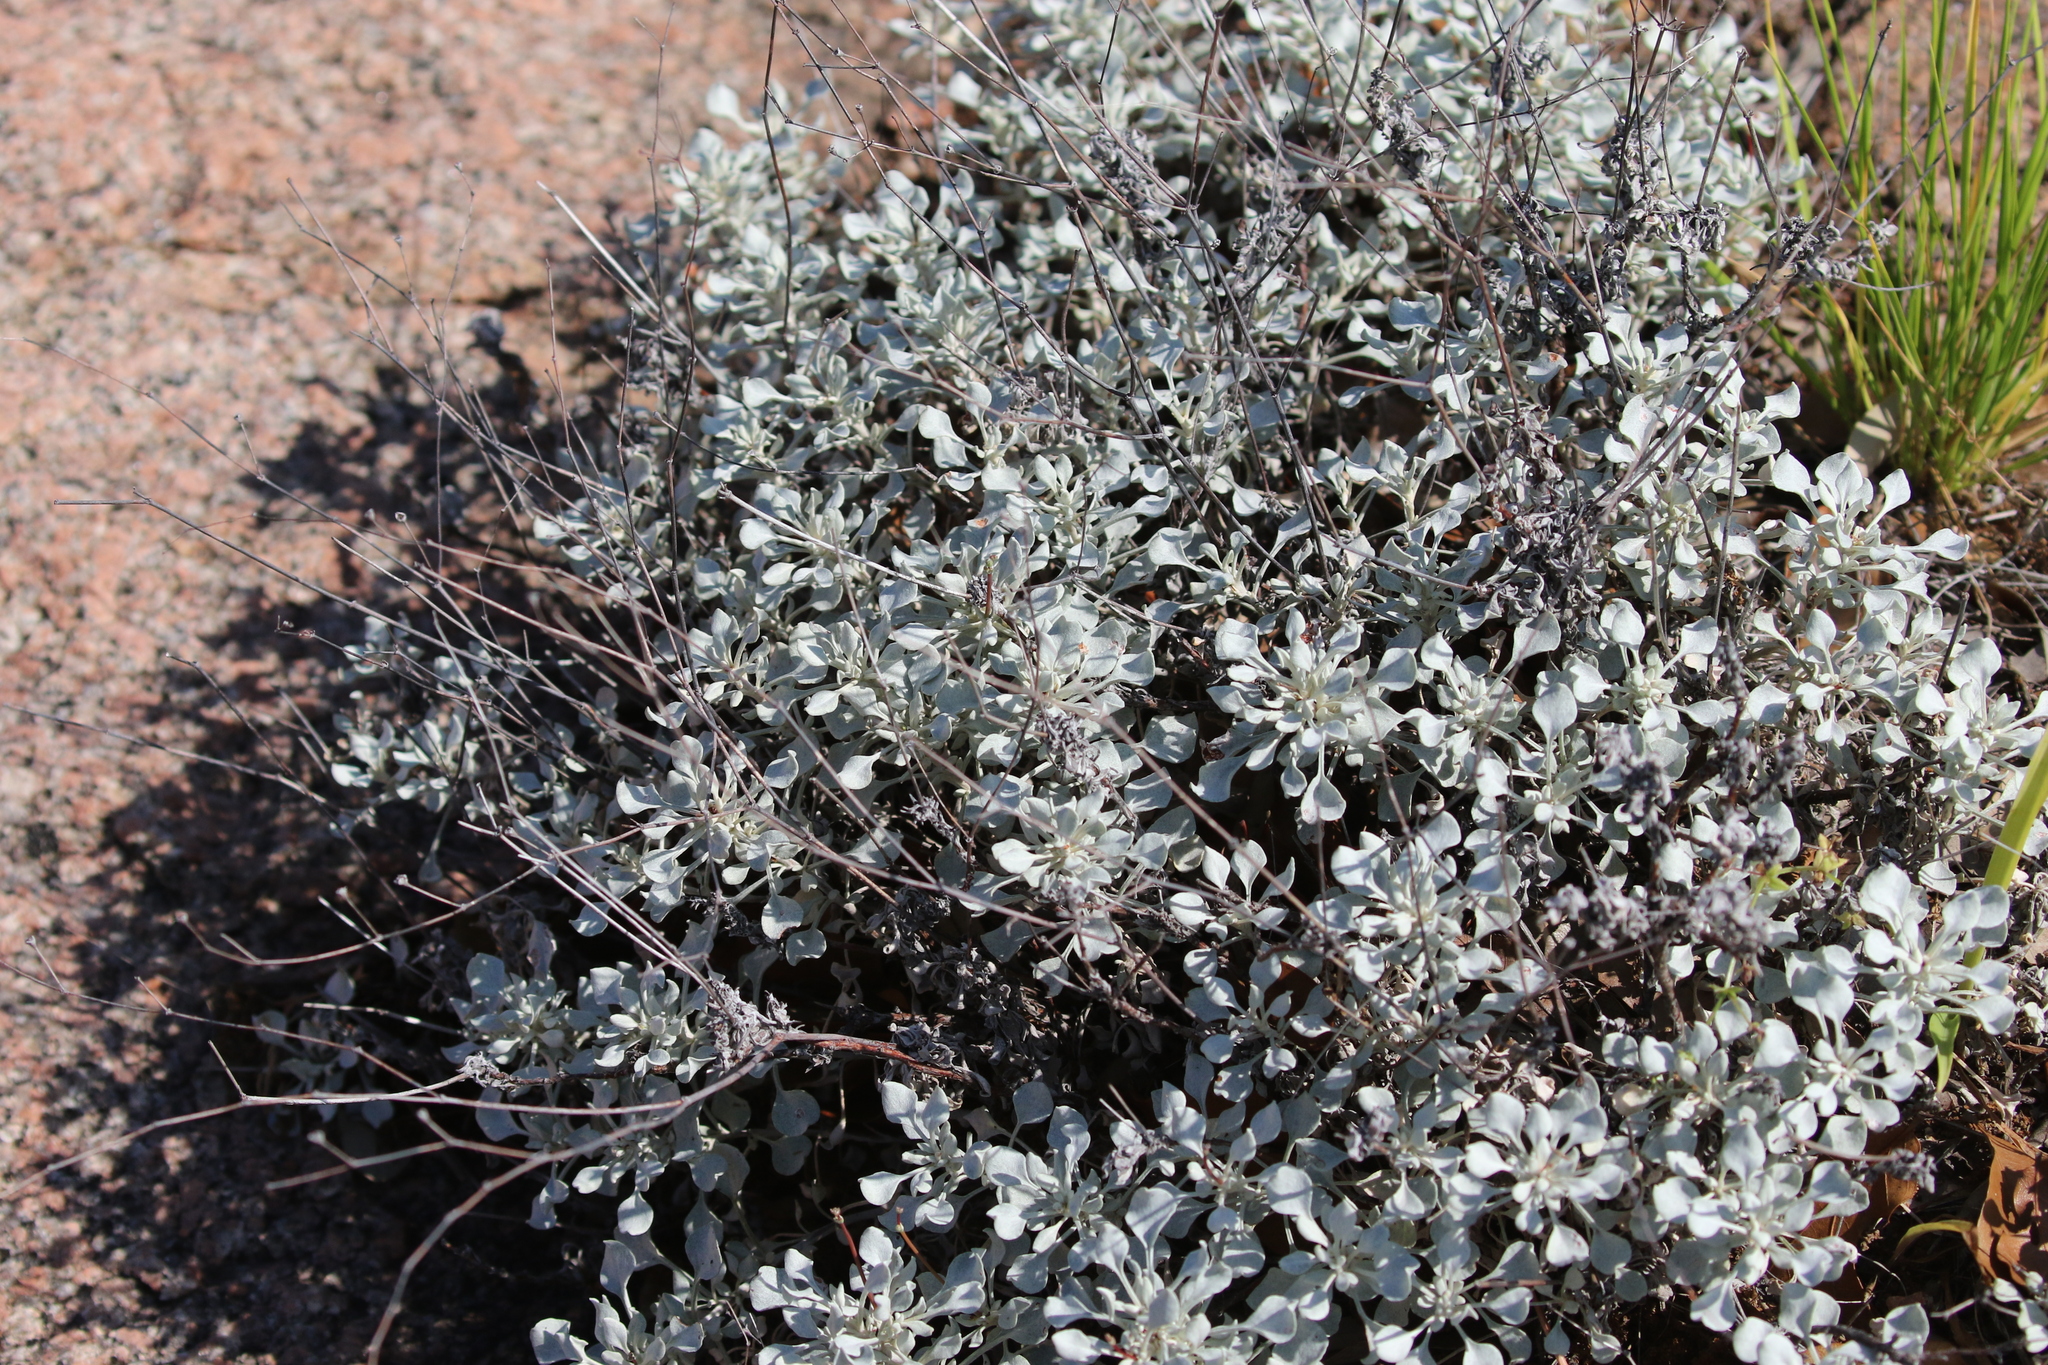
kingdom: Plantae
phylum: Tracheophyta
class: Magnoliopsida
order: Caryophyllales
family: Polygonaceae
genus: Eriogonum
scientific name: Eriogonum tenellum
